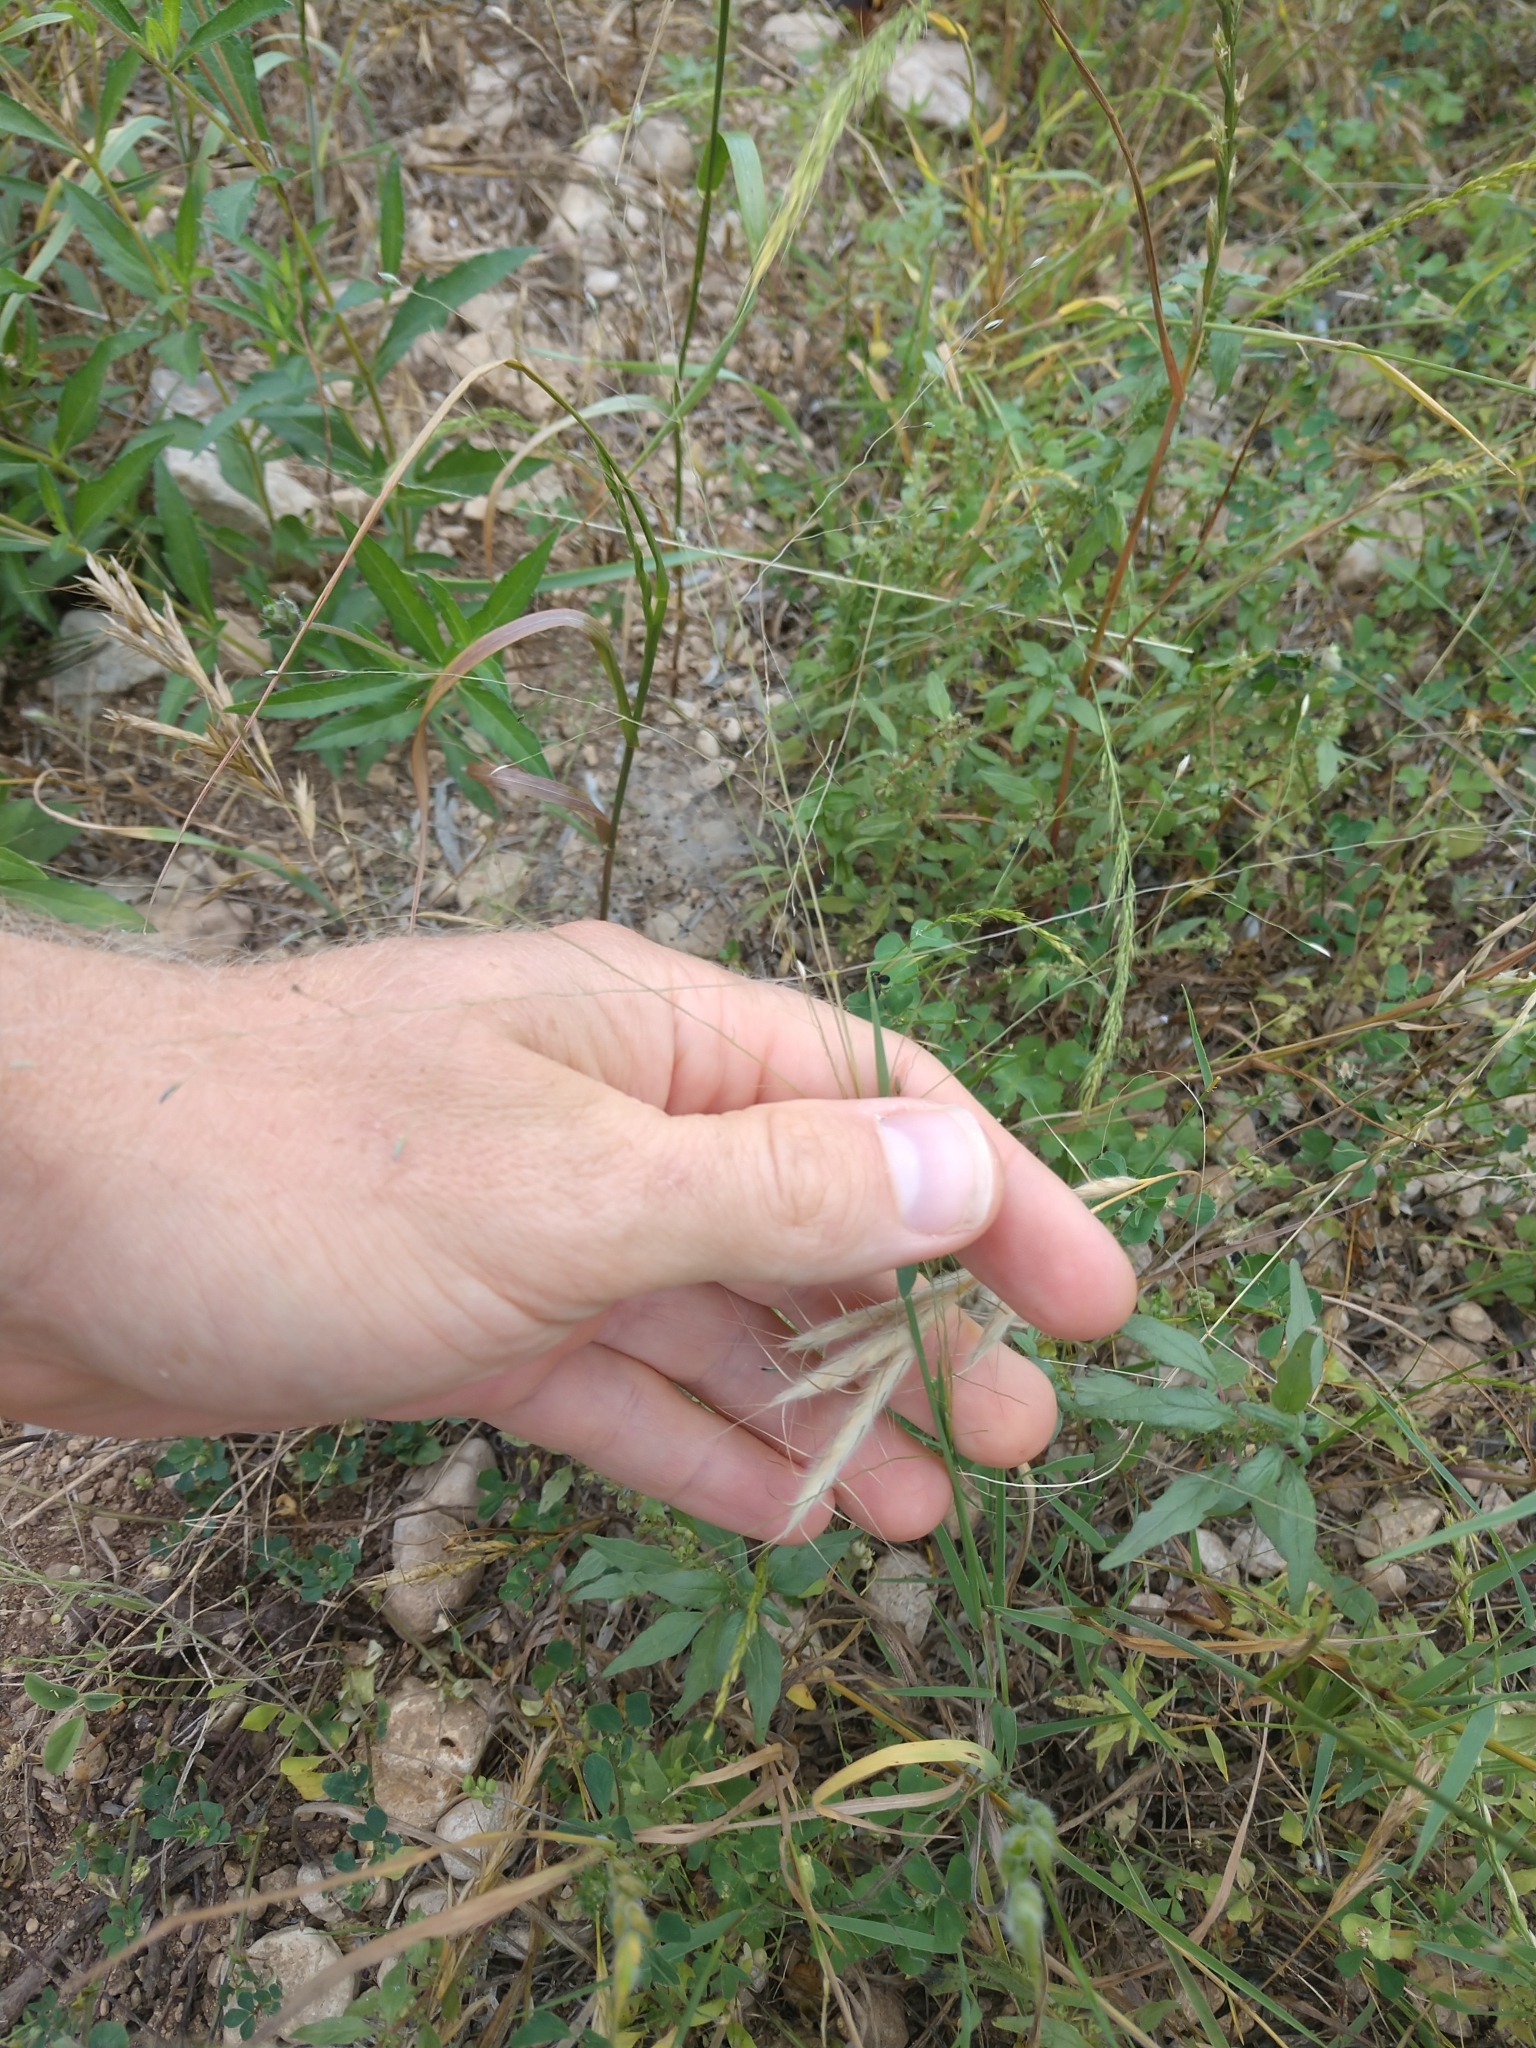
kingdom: Plantae
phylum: Tracheophyta
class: Liliopsida
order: Poales
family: Poaceae
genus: Digitaria
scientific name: Digitaria cognata
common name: Fall witchgrass
